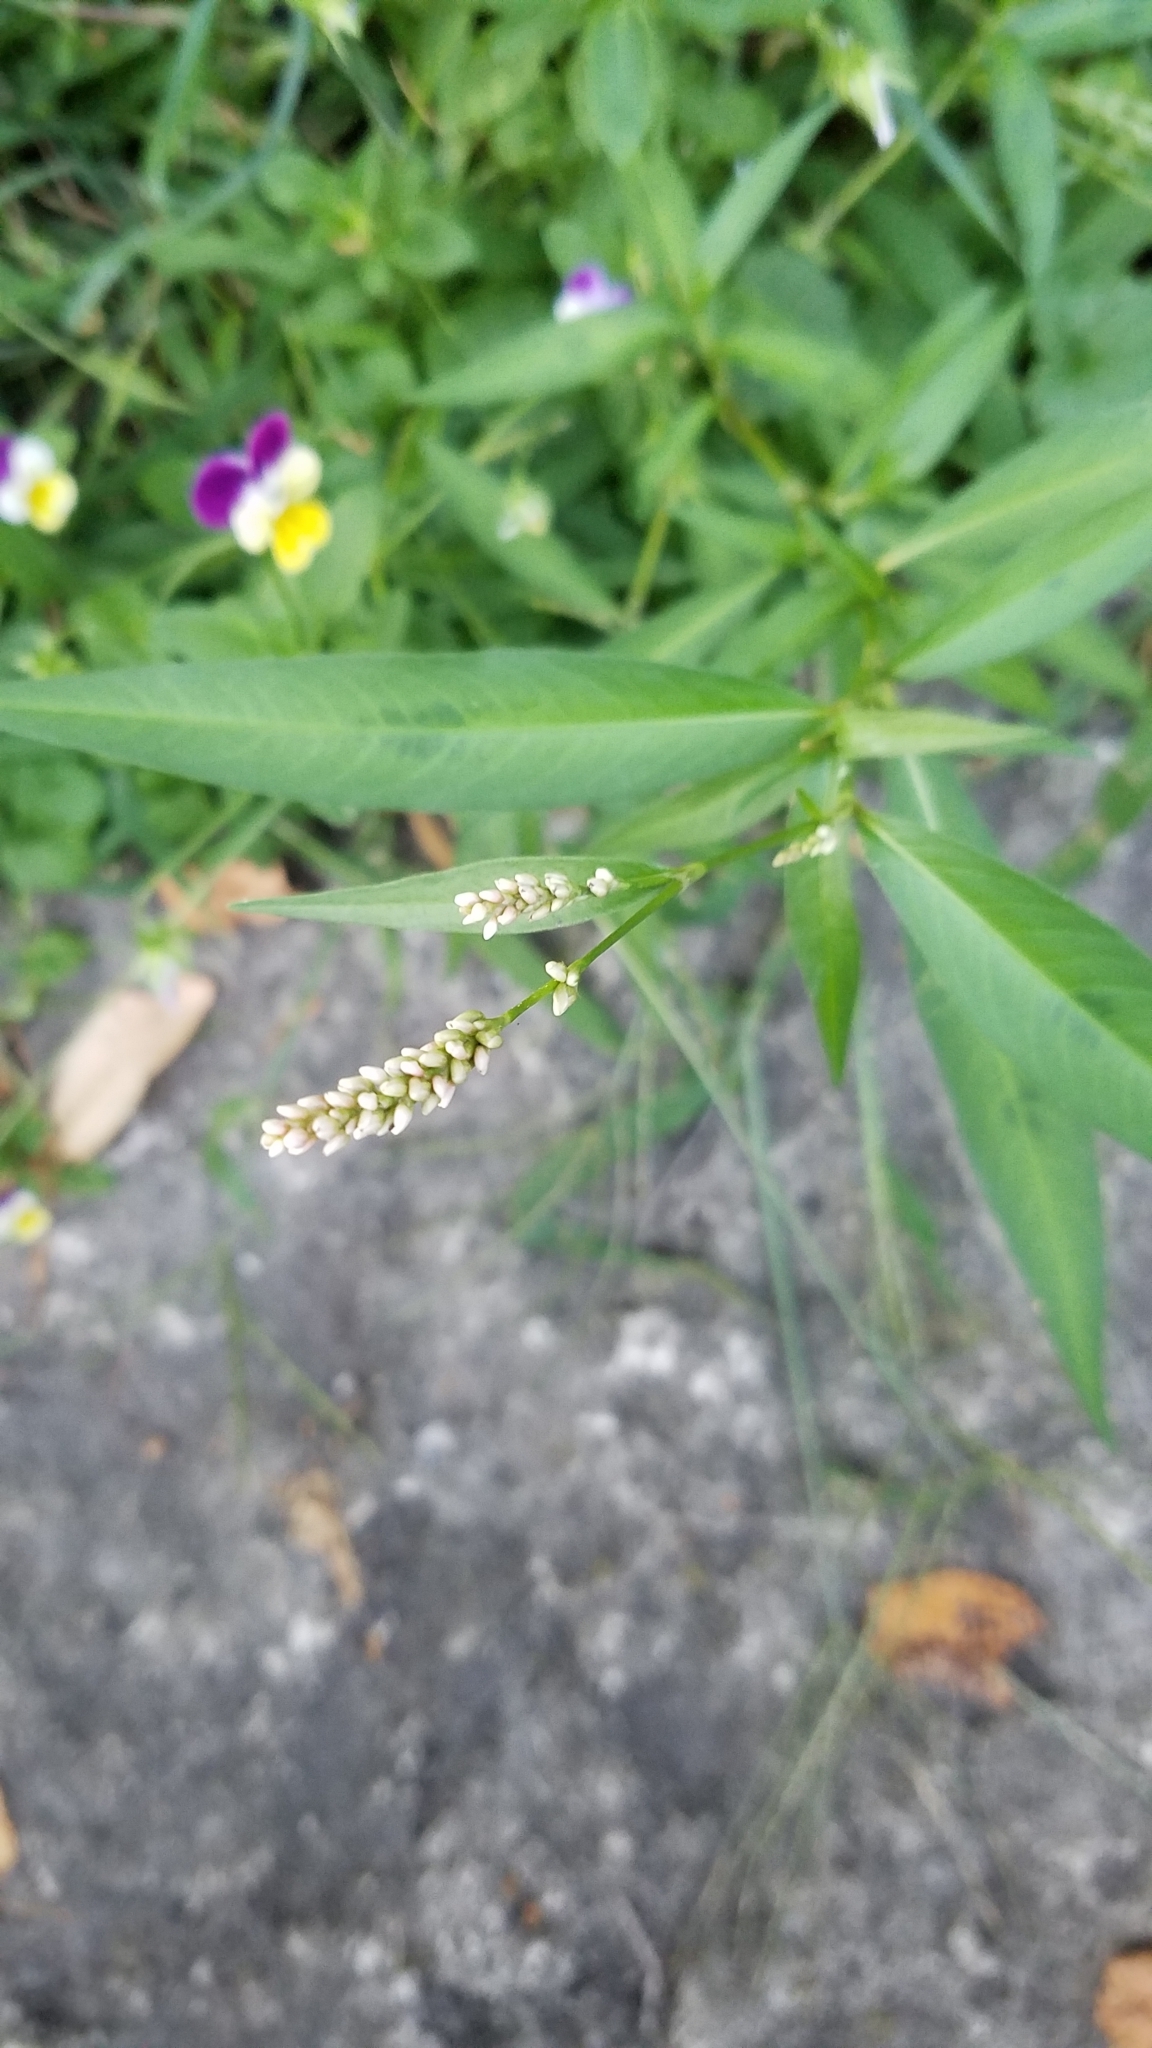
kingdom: Plantae
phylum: Tracheophyta
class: Magnoliopsida
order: Caryophyllales
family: Polygonaceae
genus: Persicaria
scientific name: Persicaria lapathifolia
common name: Curlytop knotweed
